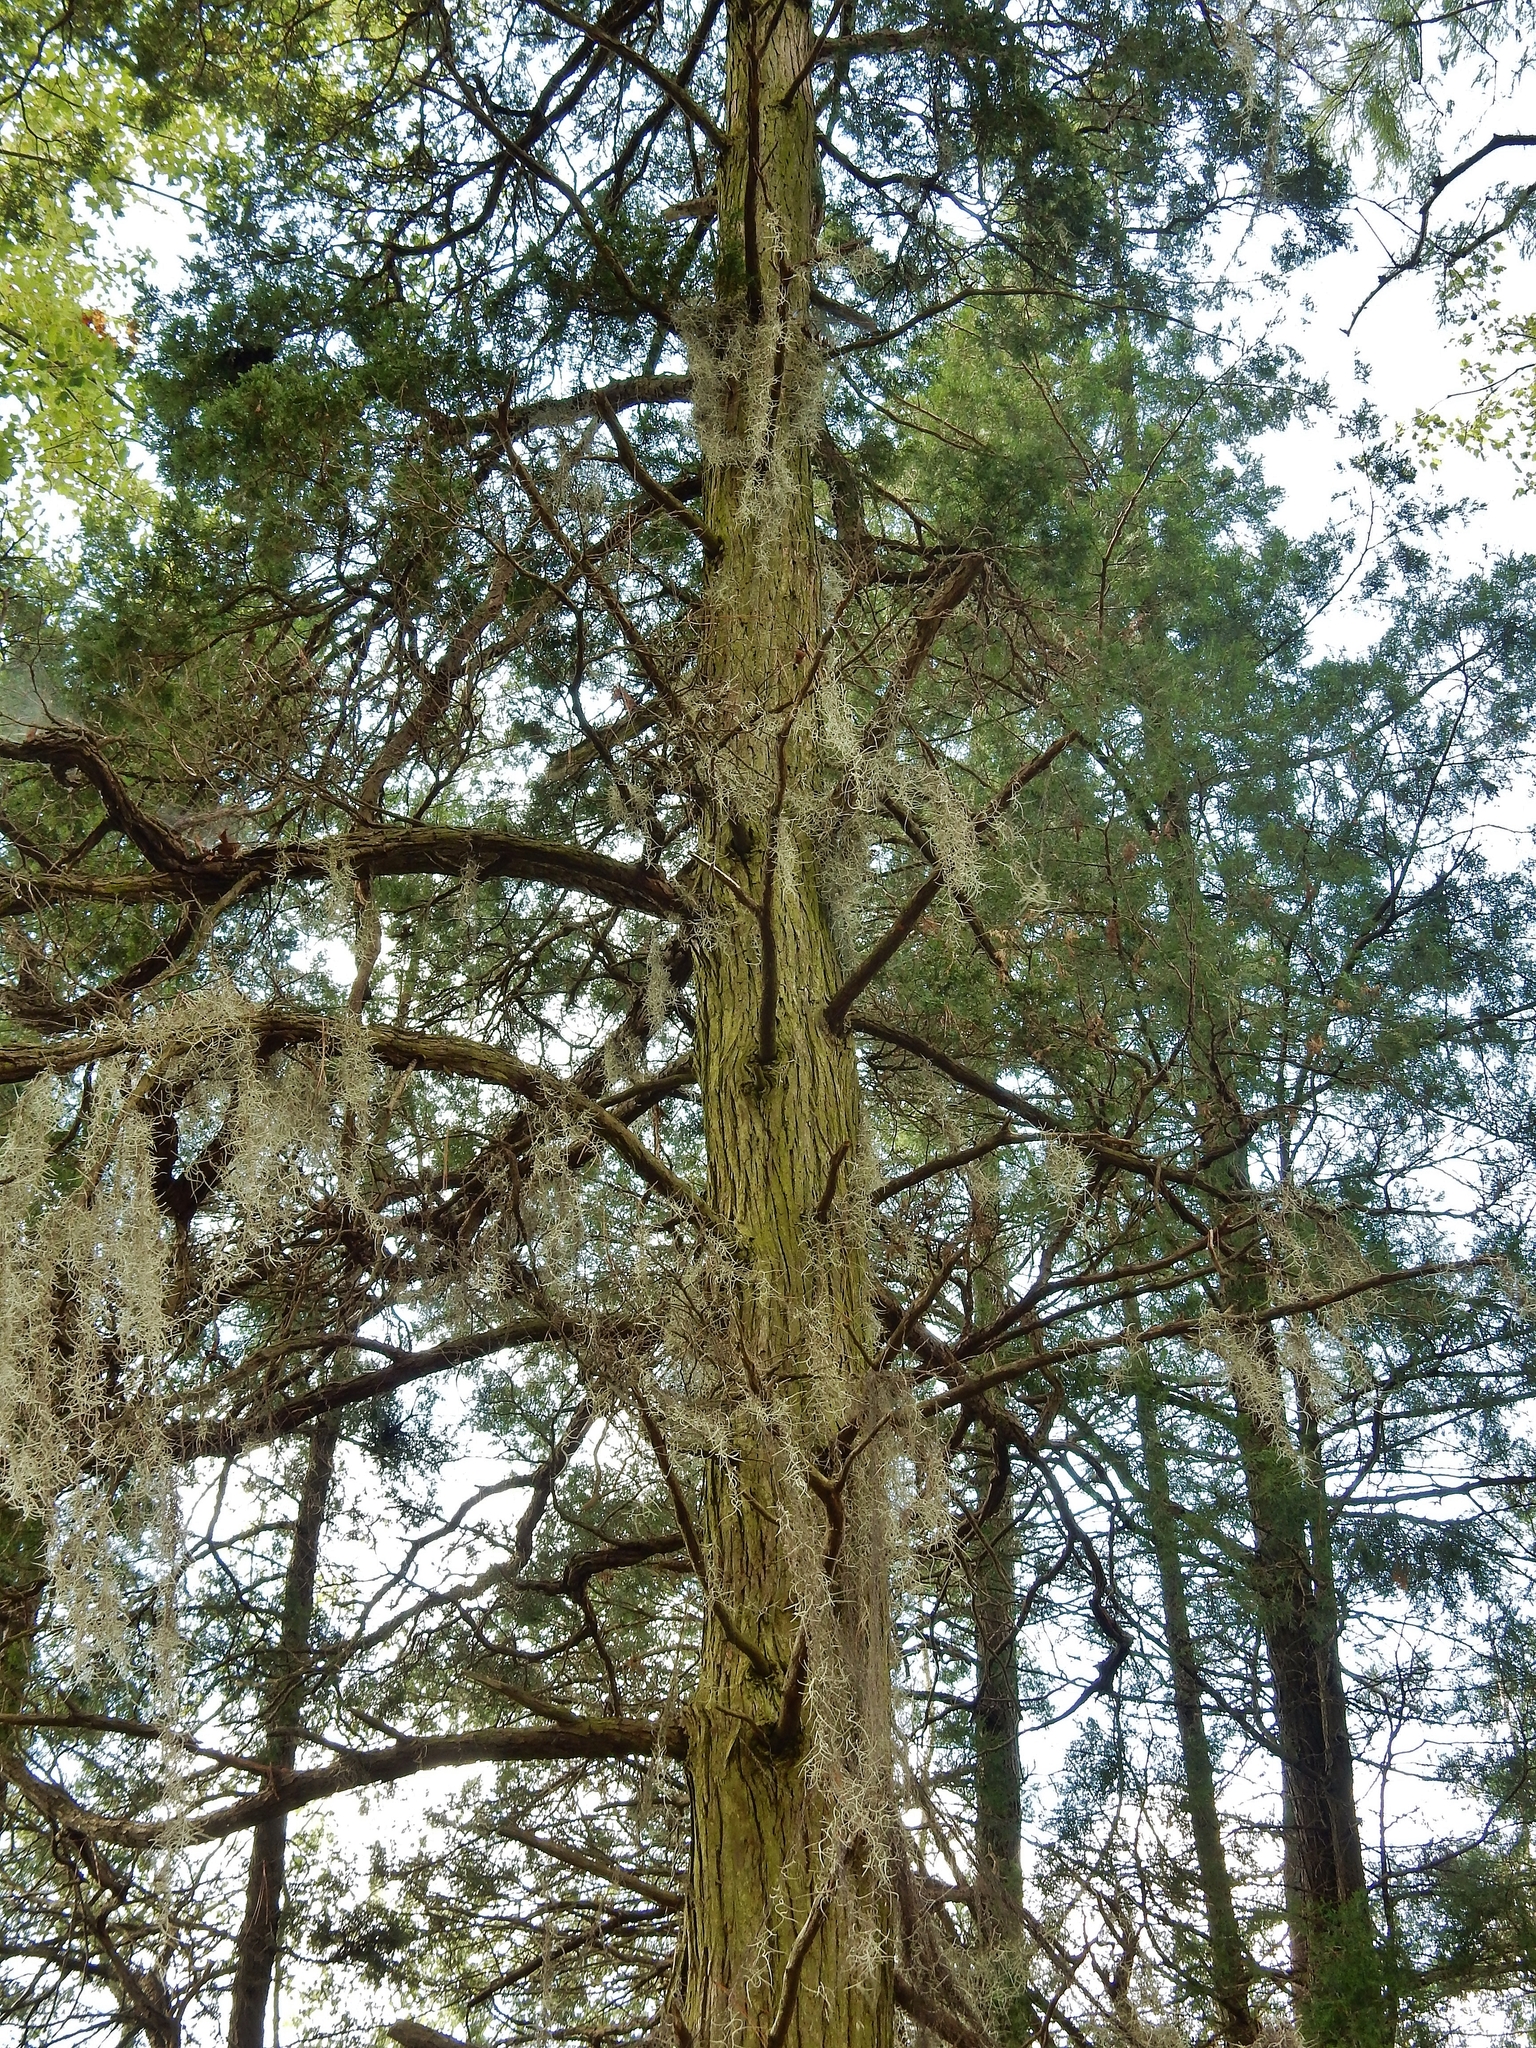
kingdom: Plantae
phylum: Tracheophyta
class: Pinopsida
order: Pinales
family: Cupressaceae
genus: Chamaecyparis
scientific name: Chamaecyparis thyoides
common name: Atlantic white cedar
